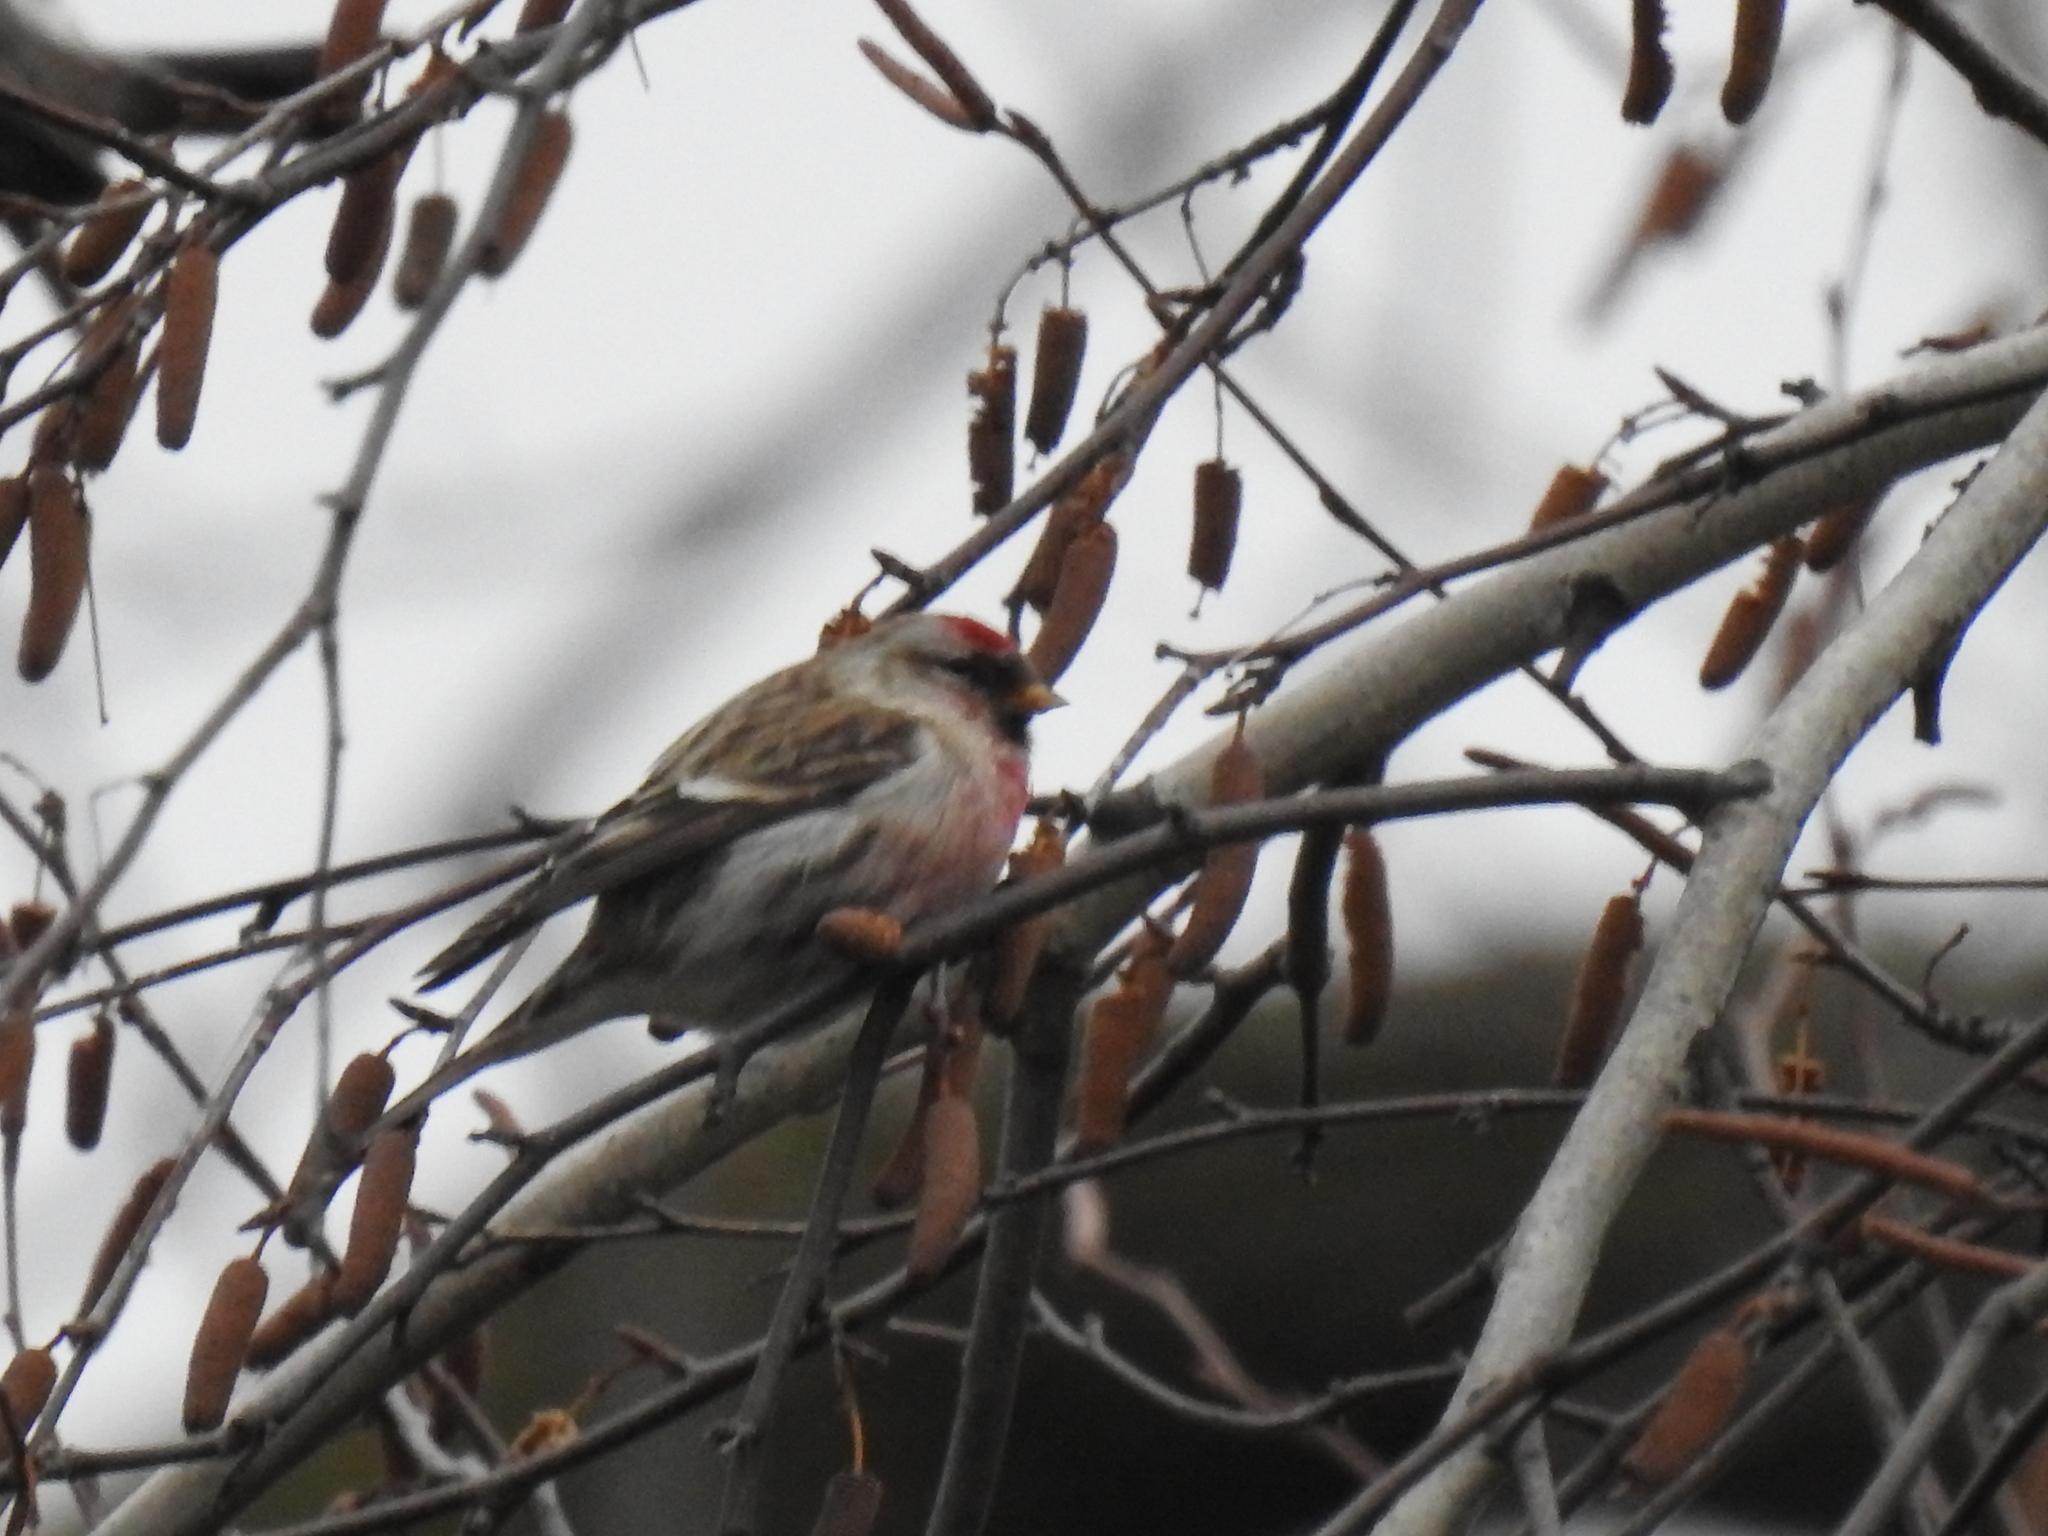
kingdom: Animalia
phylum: Chordata
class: Aves
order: Passeriformes
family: Fringillidae
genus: Acanthis
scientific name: Acanthis flammea
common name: Common redpoll
